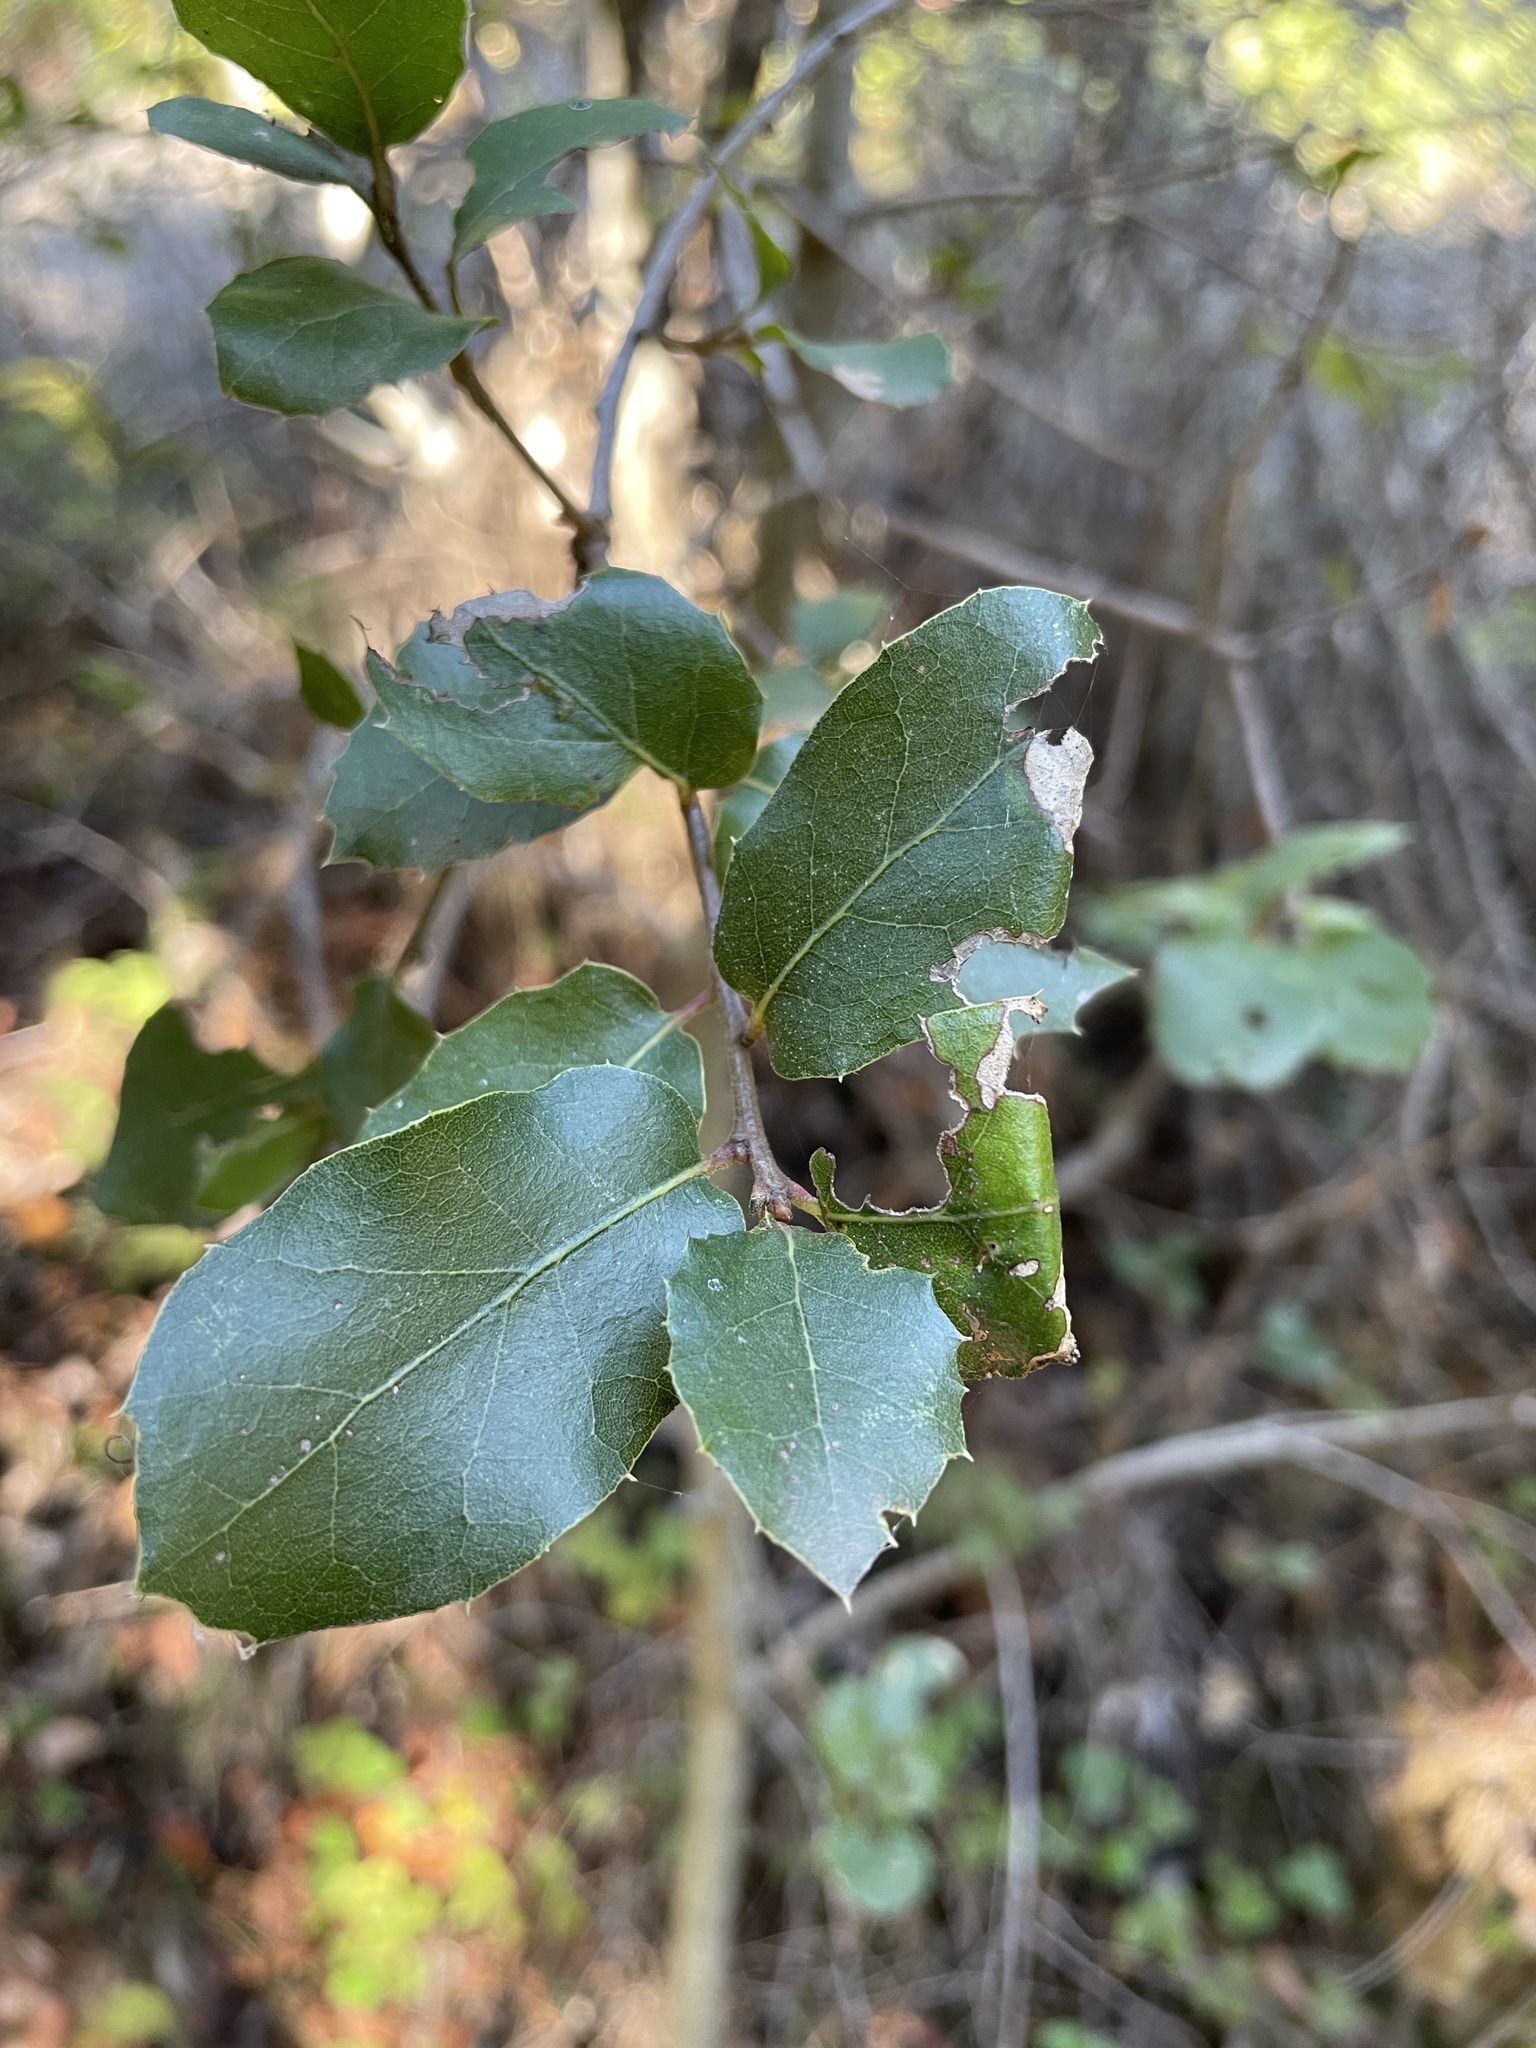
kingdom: Plantae
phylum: Tracheophyta
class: Magnoliopsida
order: Fagales
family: Fagaceae
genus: Quercus
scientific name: Quercus agrifolia
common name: California live oak
